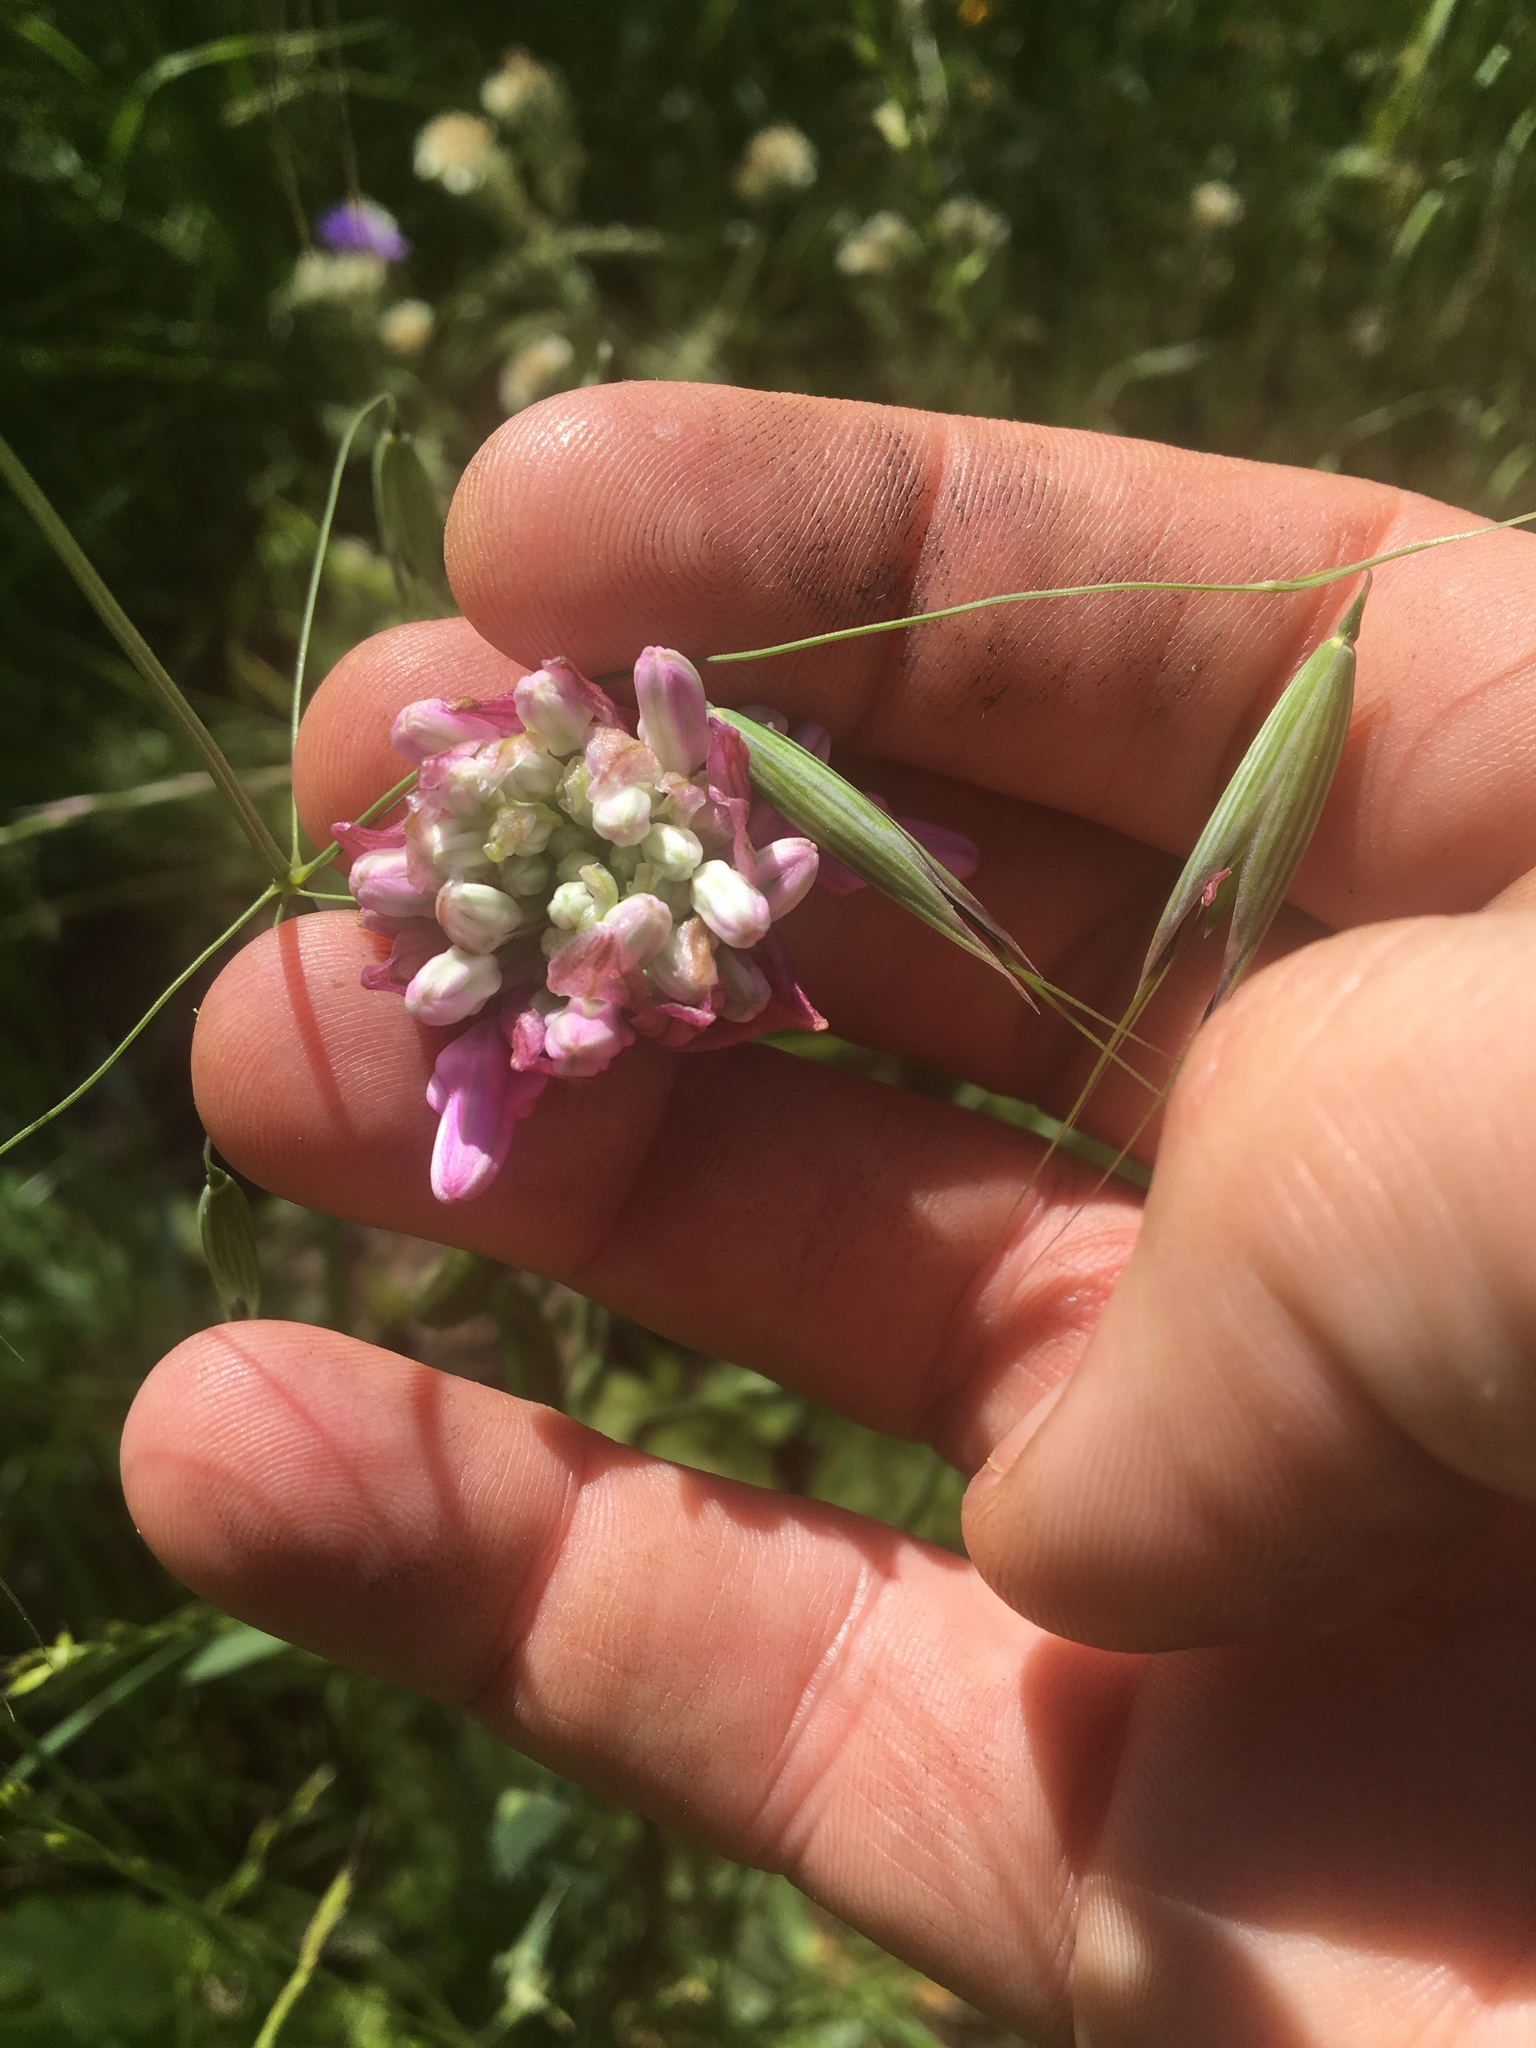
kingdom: Plantae
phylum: Tracheophyta
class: Liliopsida
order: Asparagales
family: Asparagaceae
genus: Dichelostemma
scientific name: Dichelostemma volubile
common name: Trining brodiaea
